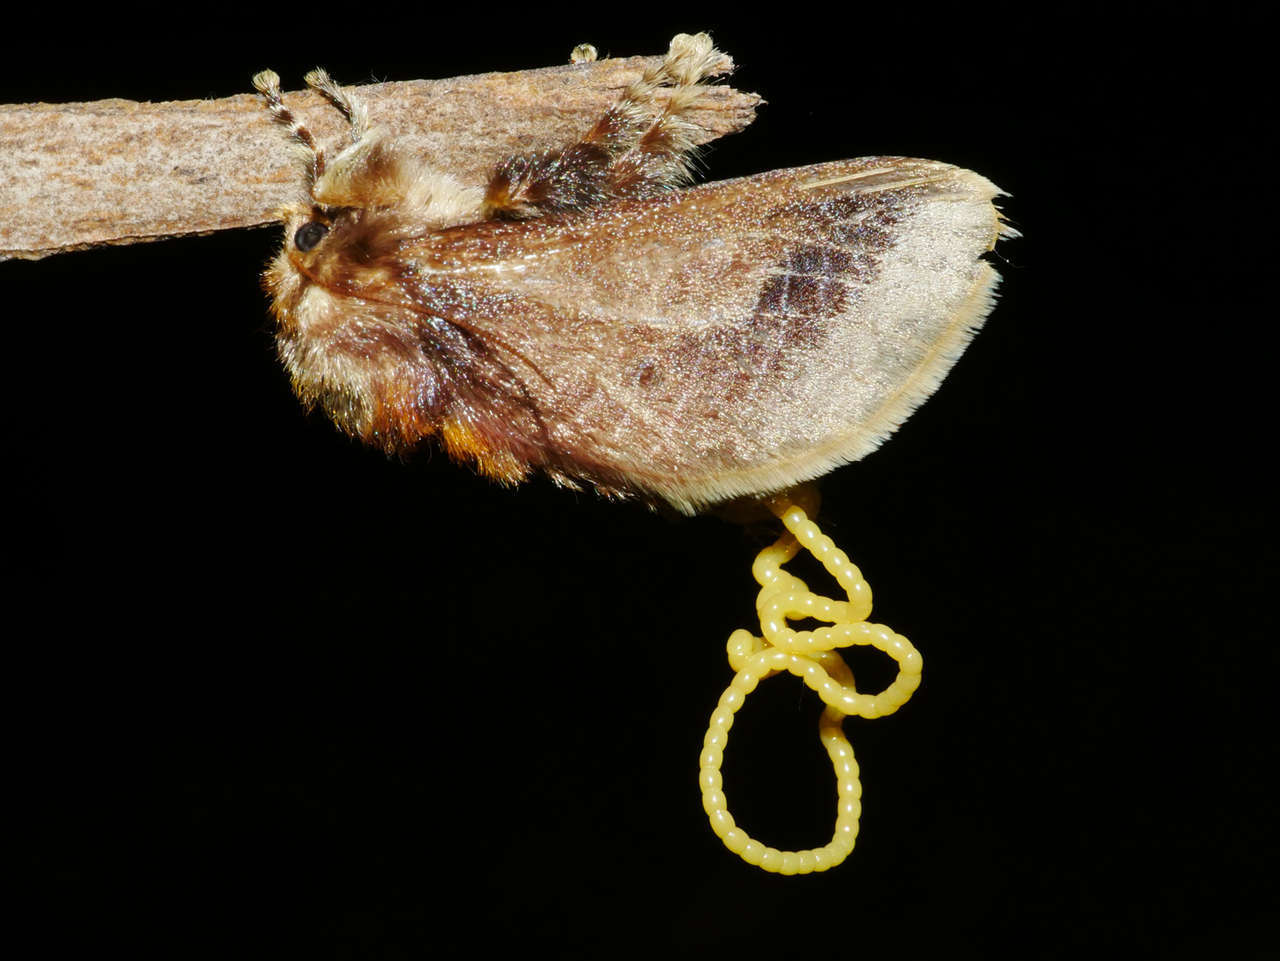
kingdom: Animalia
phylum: Arthropoda
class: Insecta
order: Lepidoptera
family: Limacodidae
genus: Doratifera
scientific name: Doratifera oxleyi
